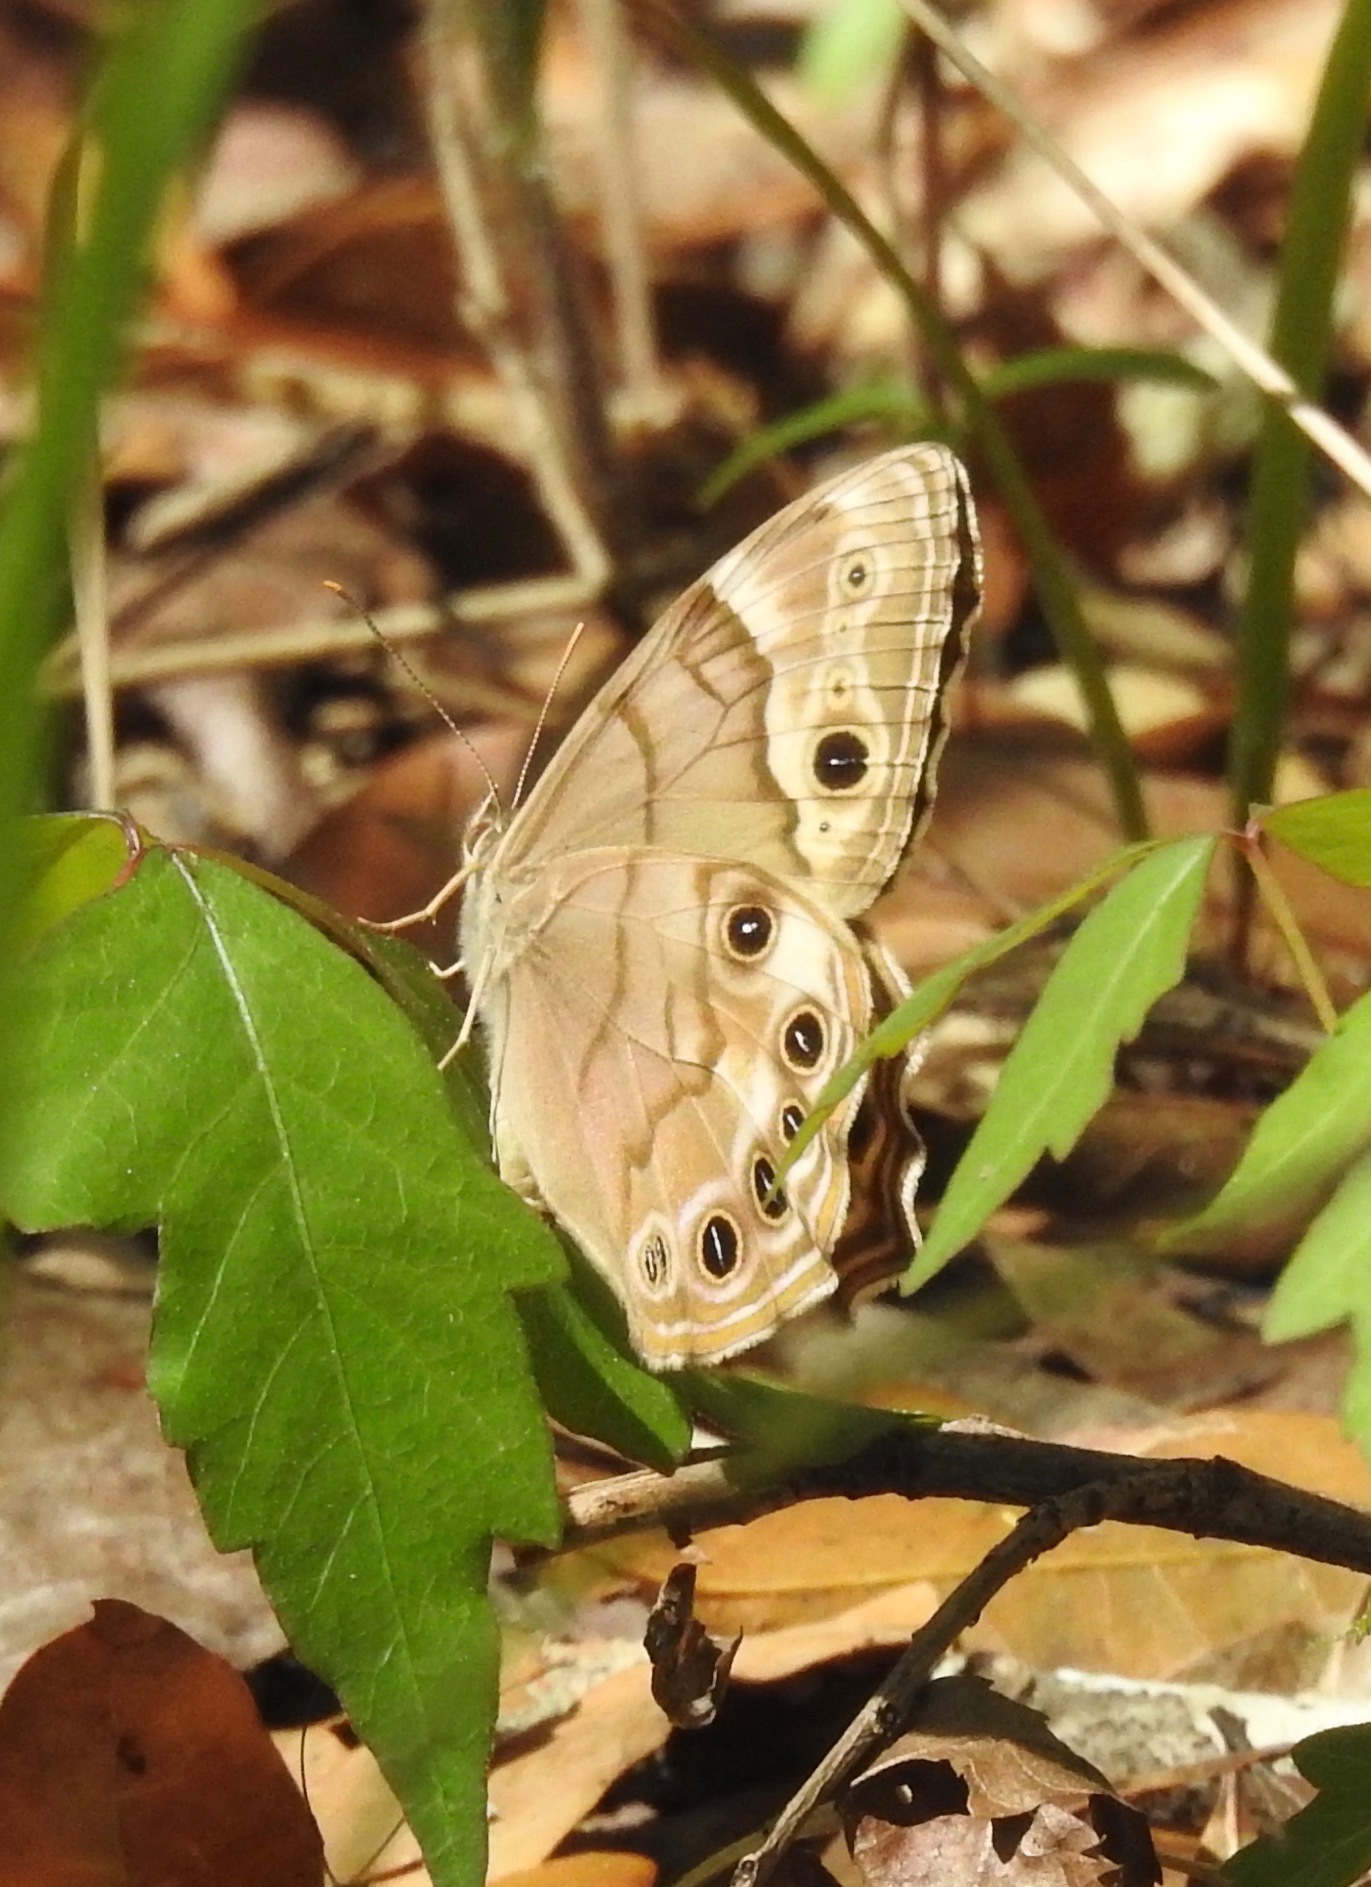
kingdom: Animalia
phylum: Arthropoda
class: Insecta
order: Lepidoptera
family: Nymphalidae
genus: Enodia
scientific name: Enodia portlandia
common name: Southern pearly-eye
